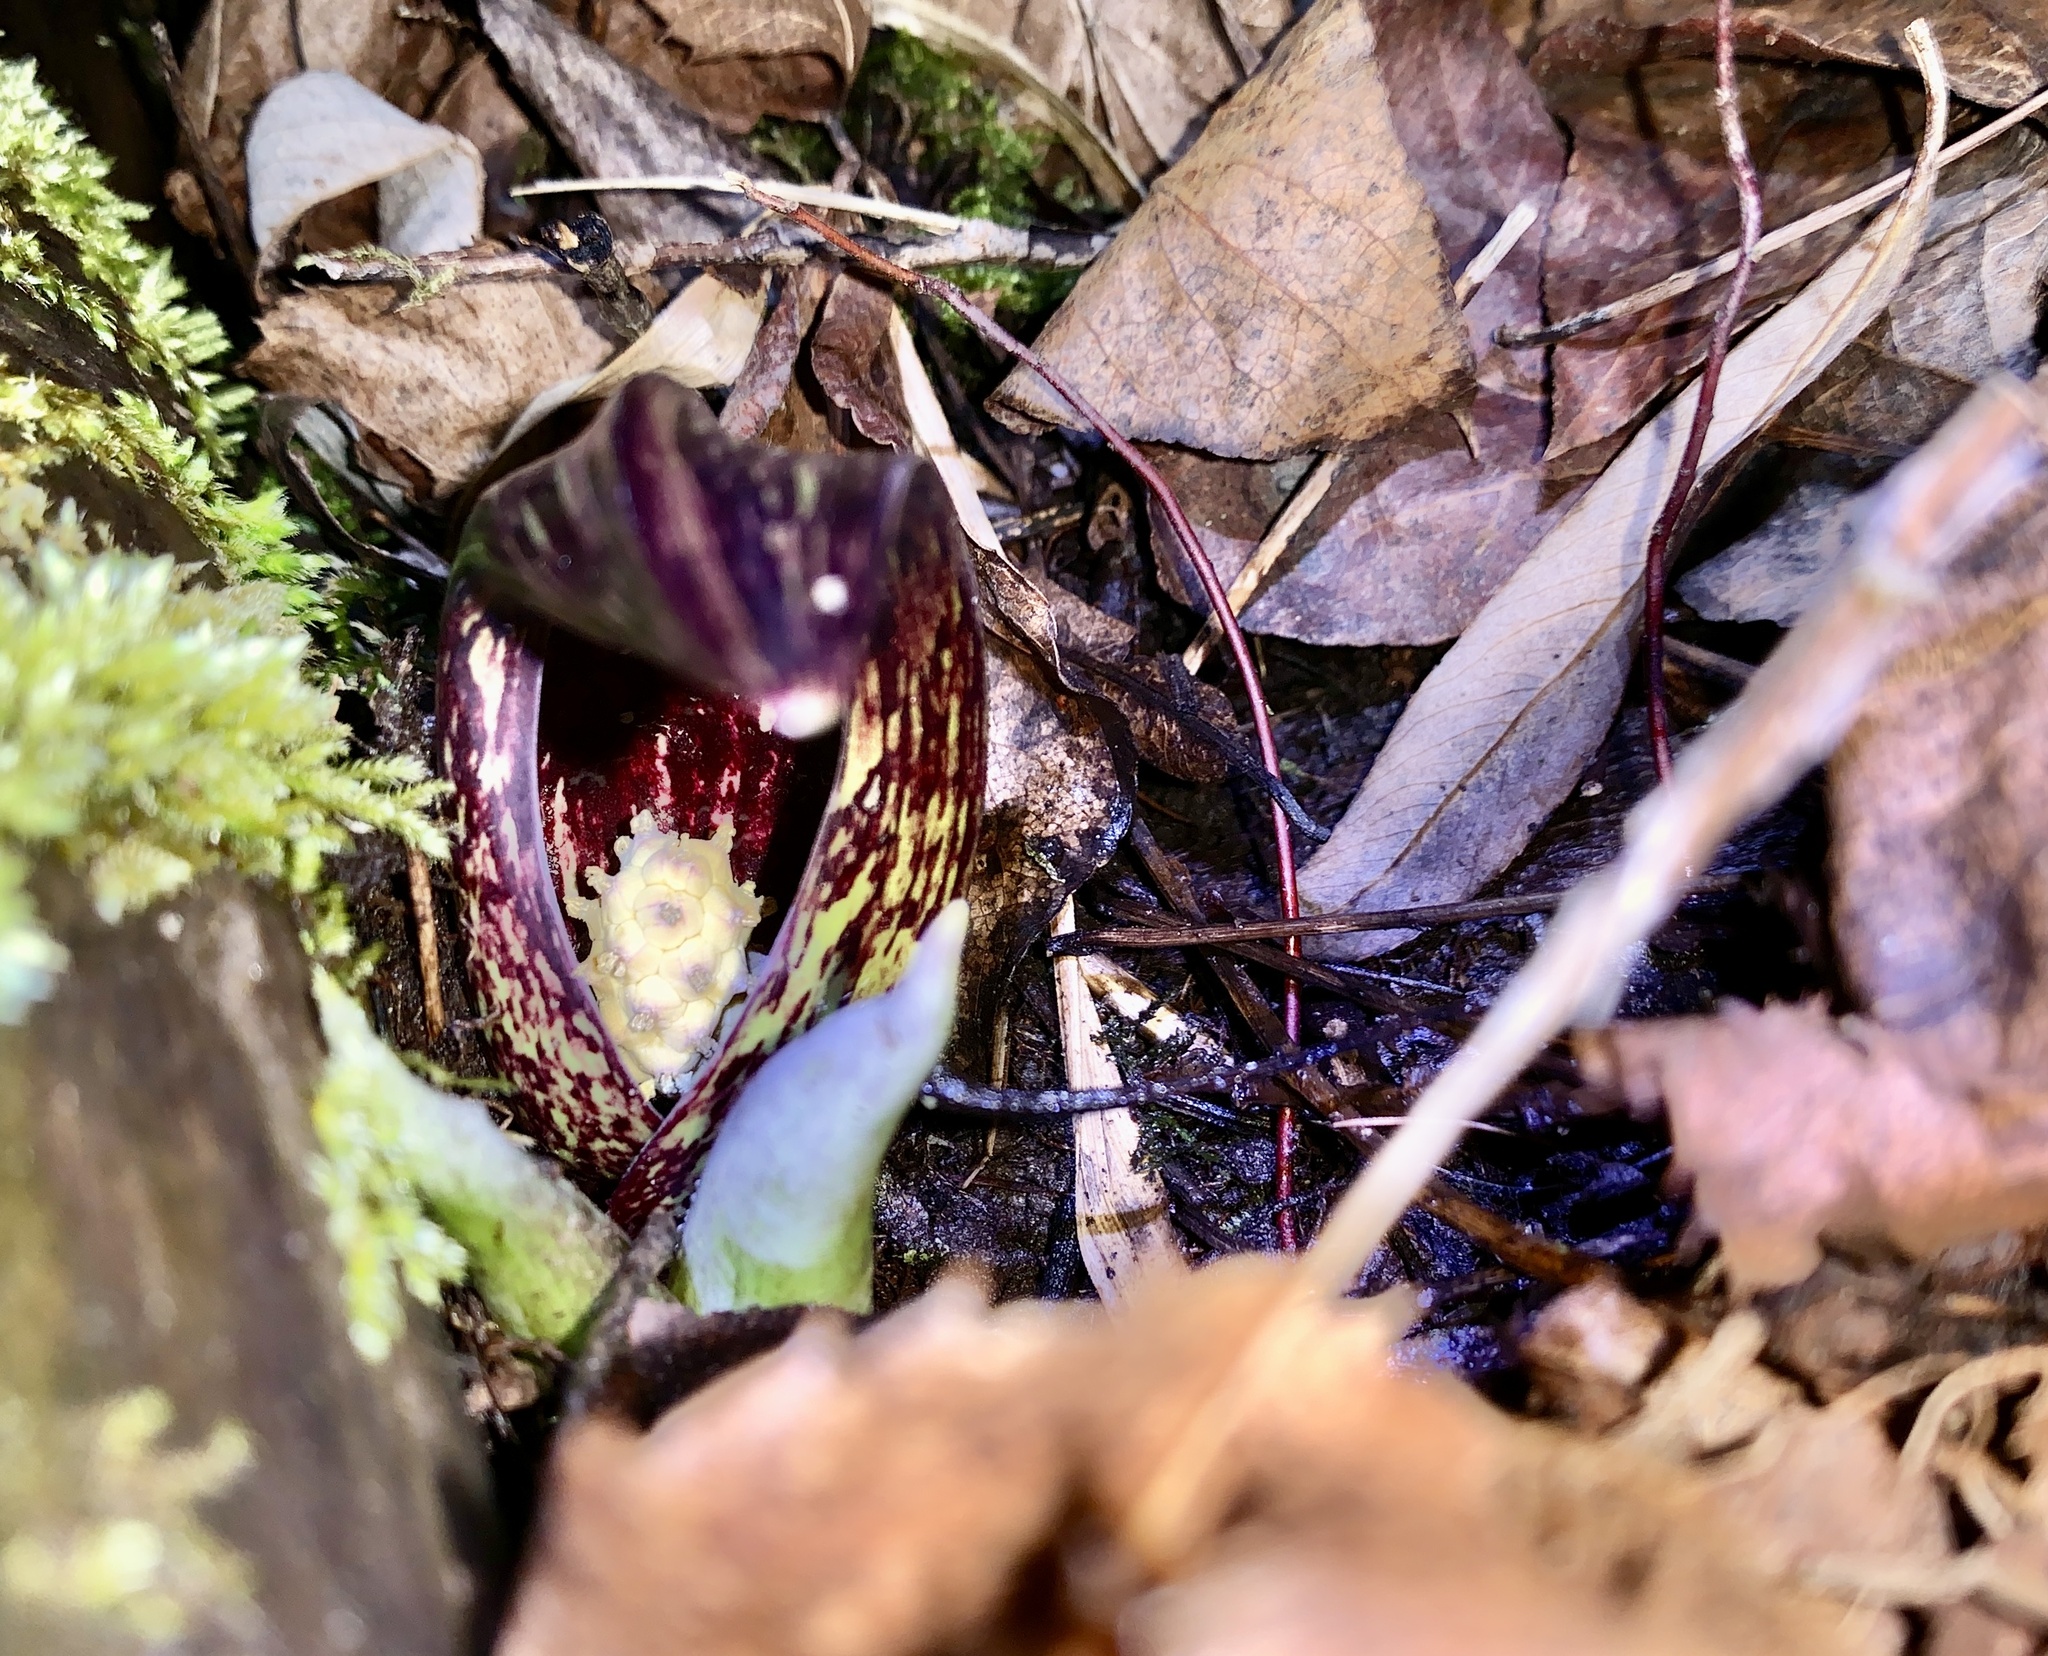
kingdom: Plantae
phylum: Tracheophyta
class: Liliopsida
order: Alismatales
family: Araceae
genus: Symplocarpus
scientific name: Symplocarpus foetidus
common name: Eastern skunk cabbage
